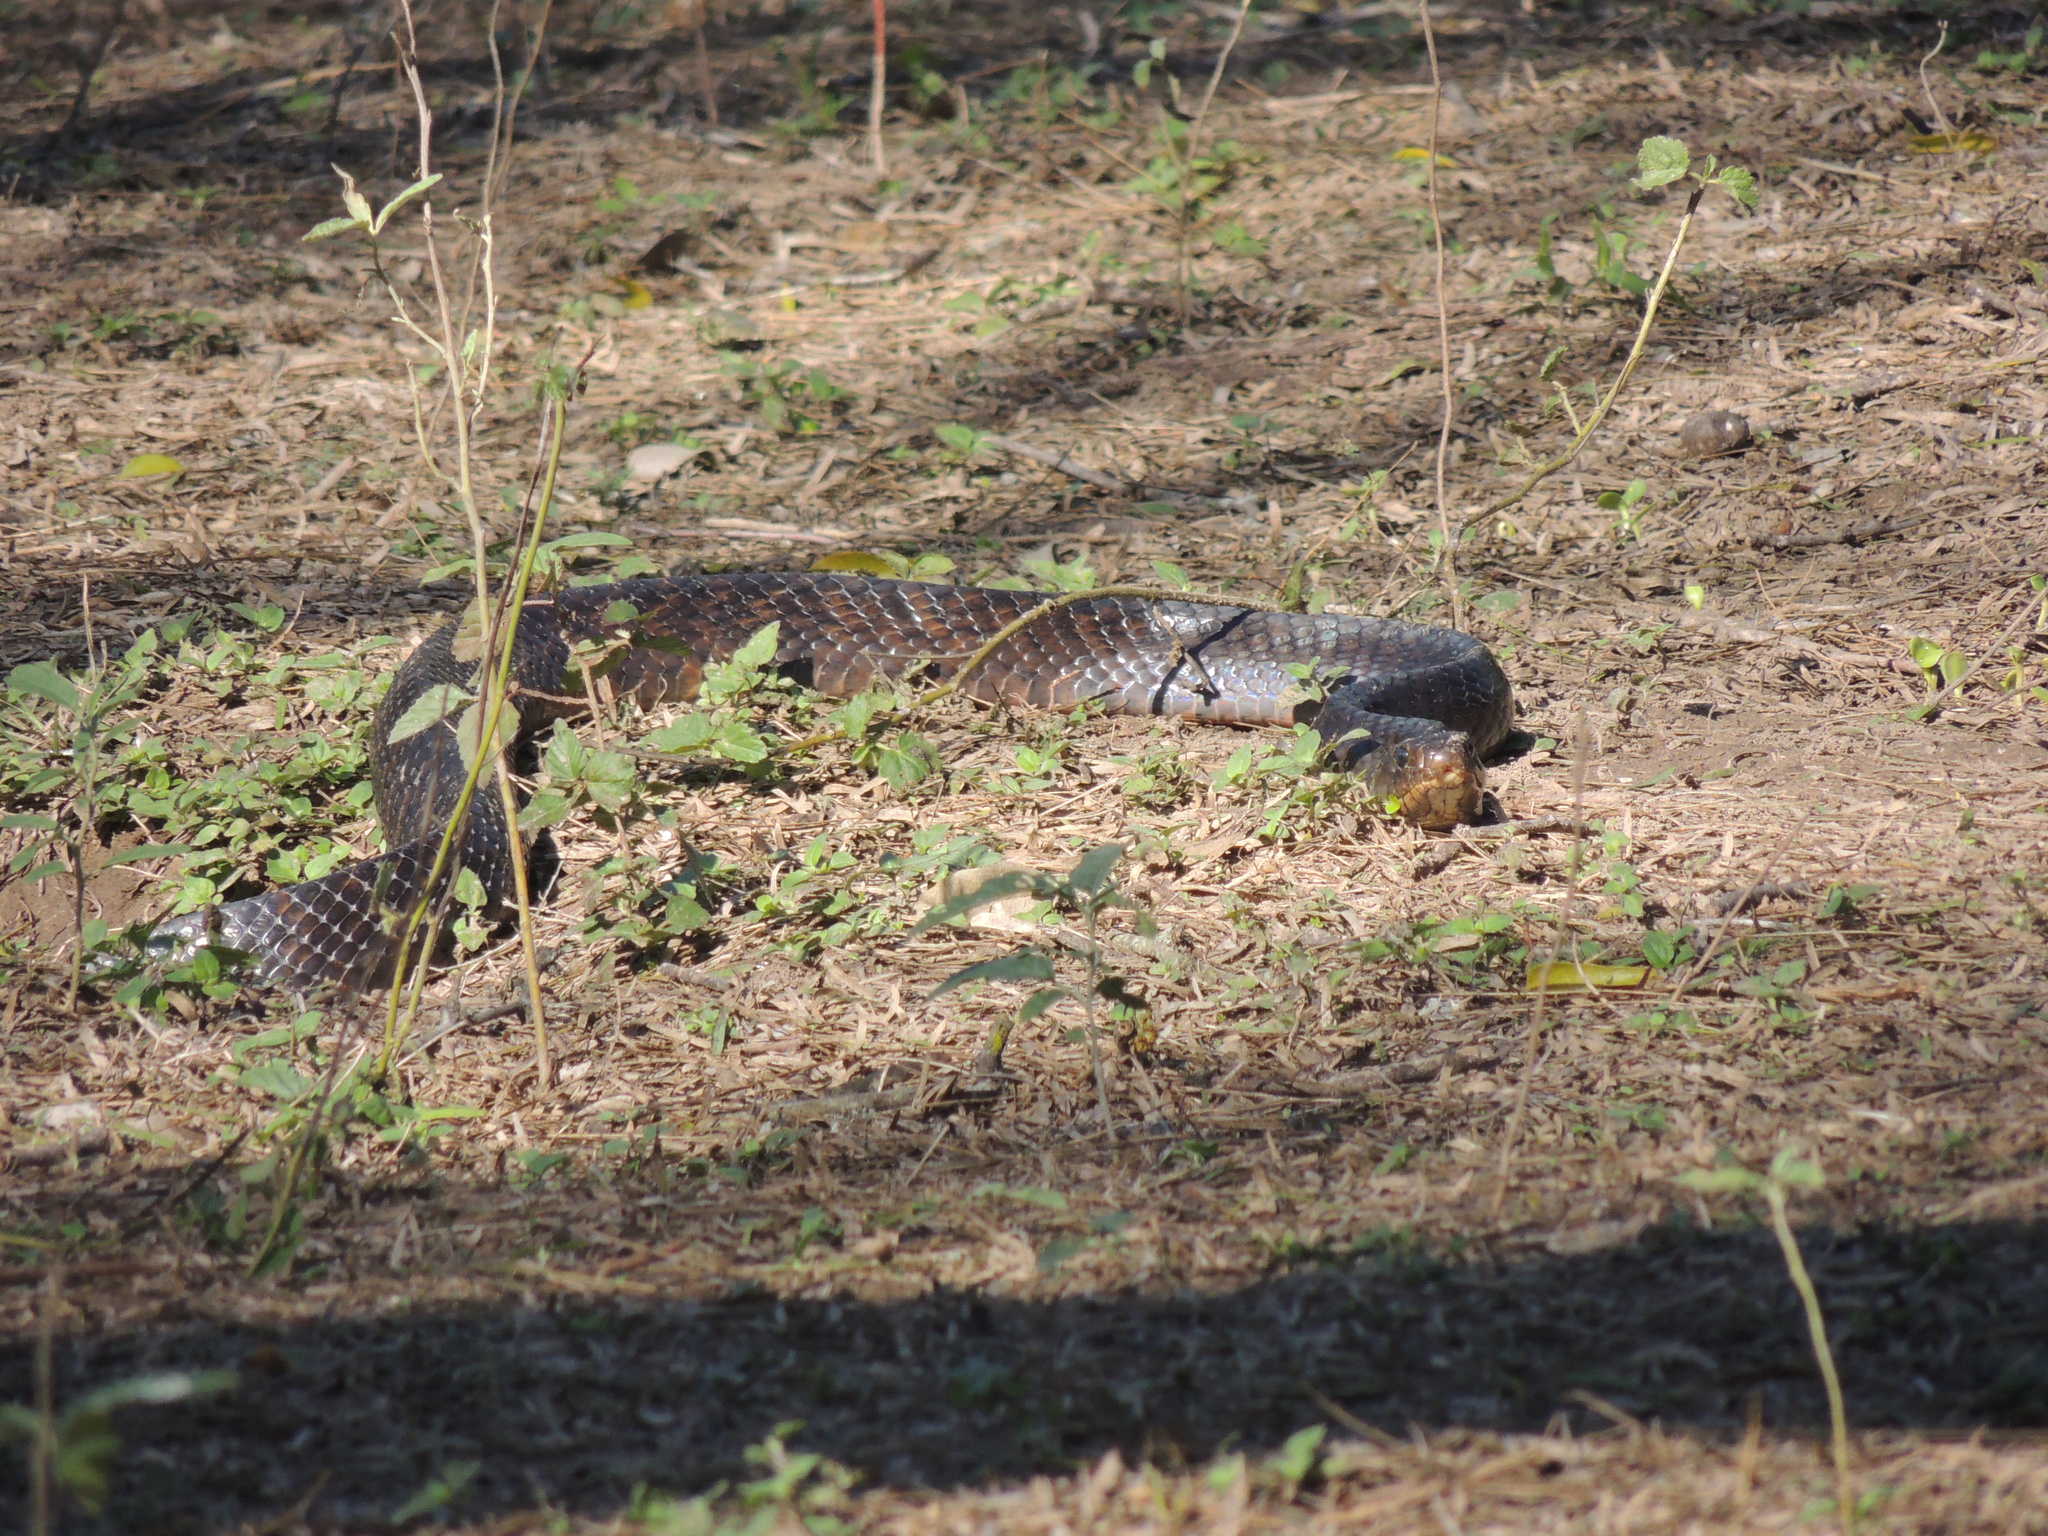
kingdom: Animalia
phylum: Chordata
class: Squamata
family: Colubridae
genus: Drymarchon
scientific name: Drymarchon melanurus
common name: Central american indigo snake
